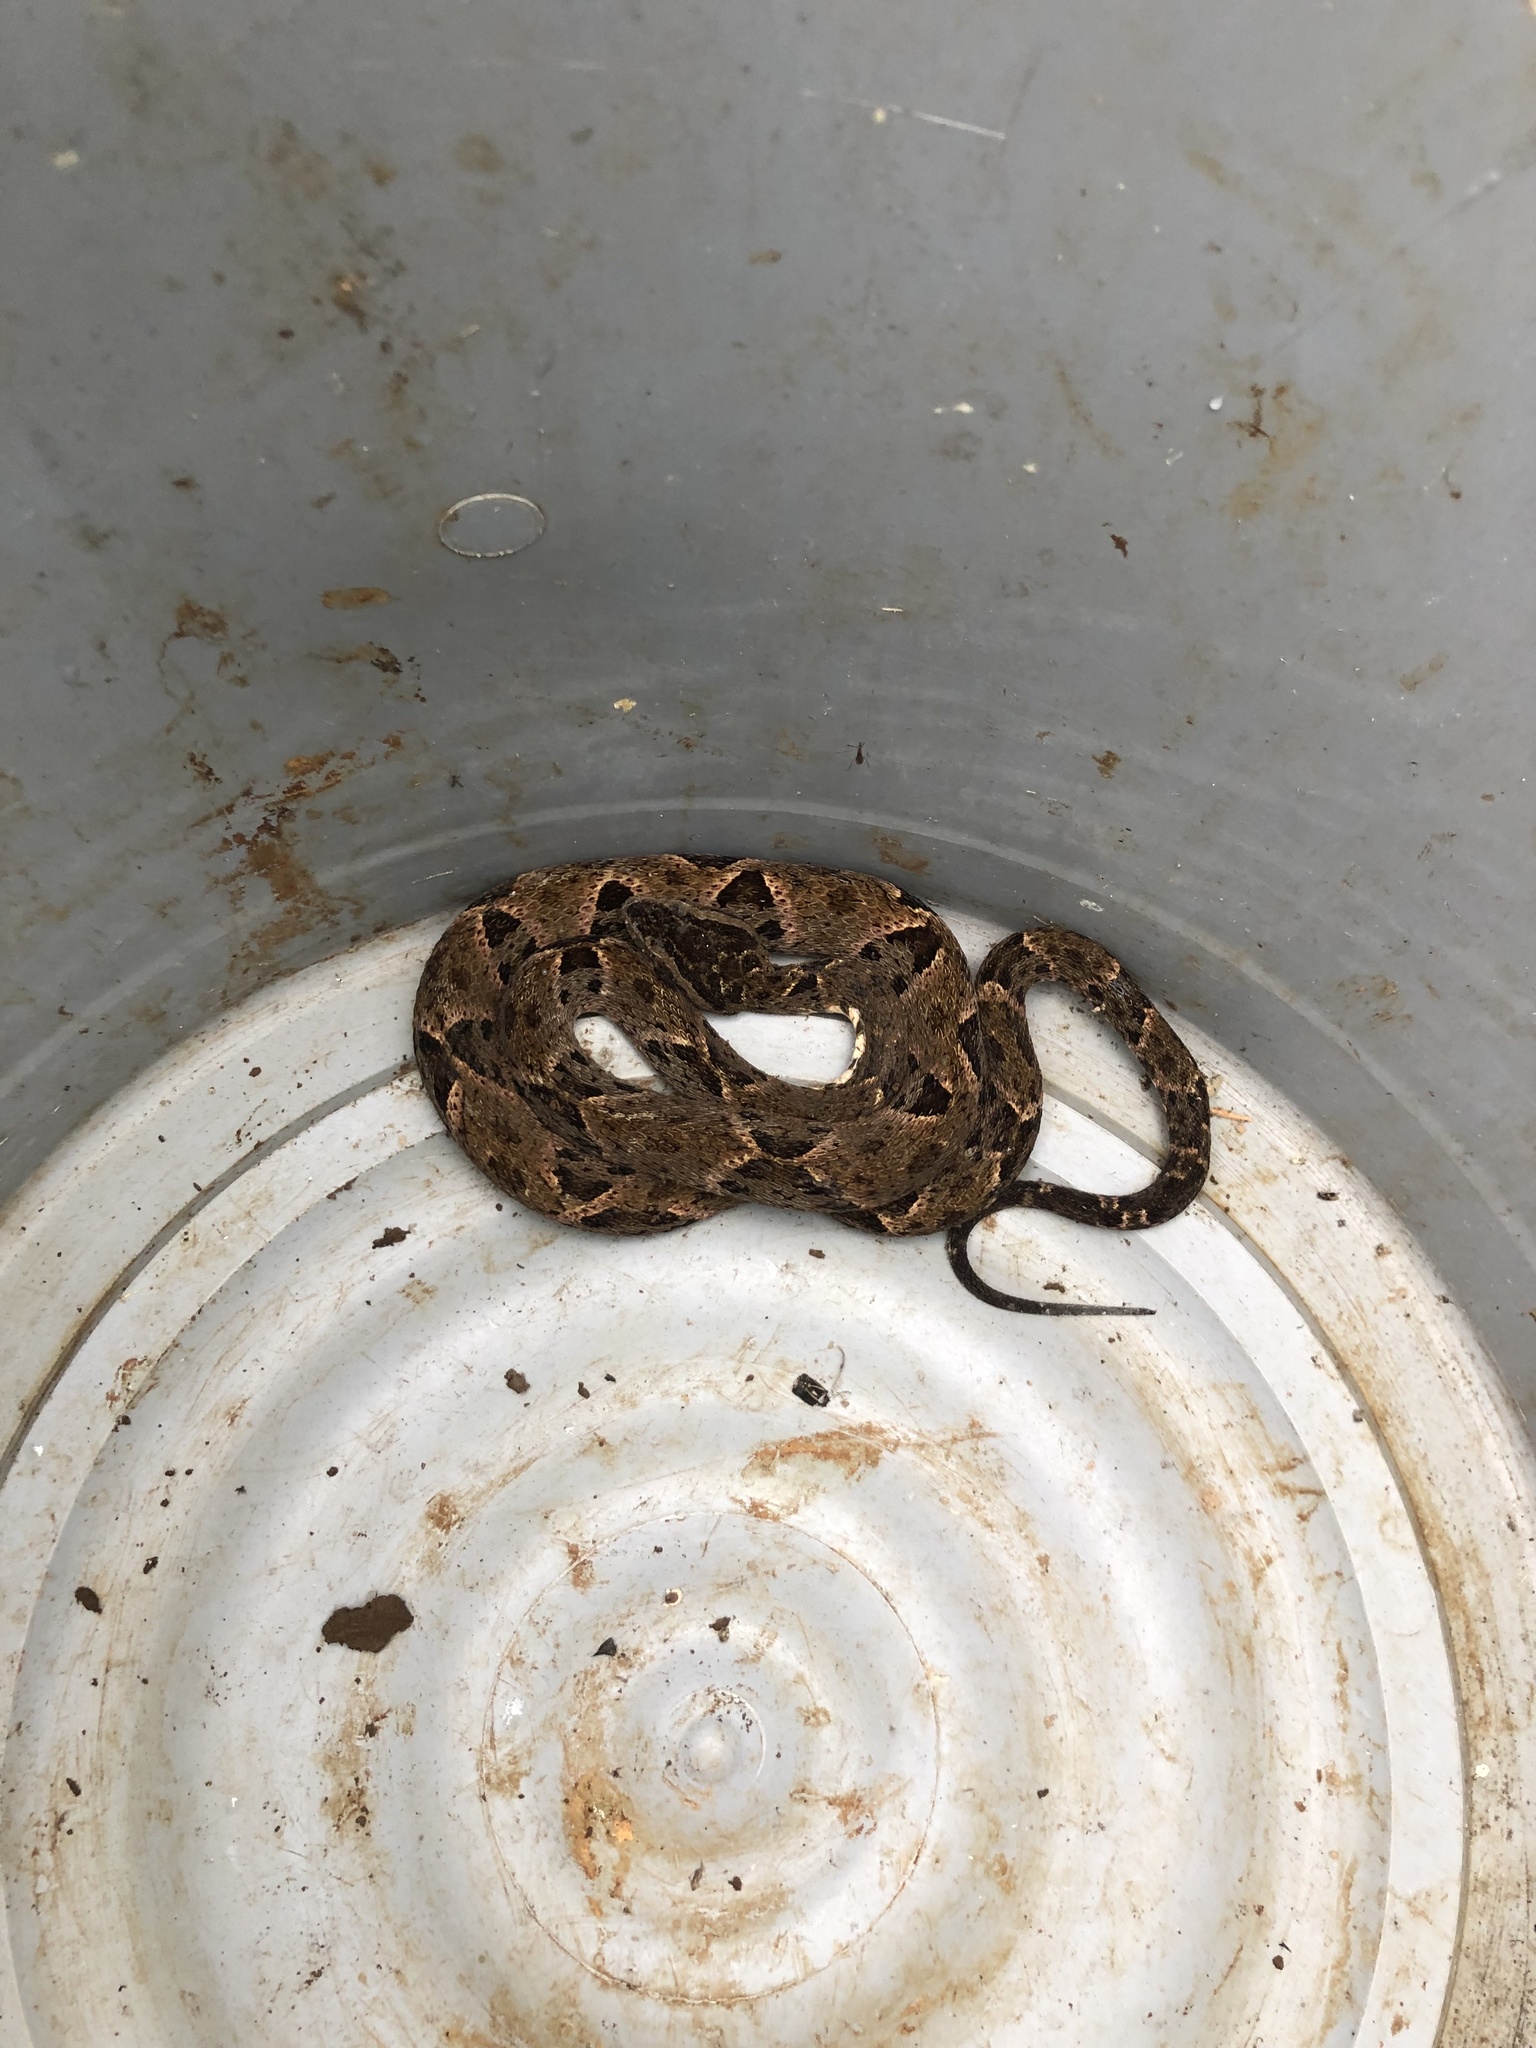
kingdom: Animalia
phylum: Chordata
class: Squamata
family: Viperidae
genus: Bothrops
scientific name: Bothrops asper
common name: Terciopelo
